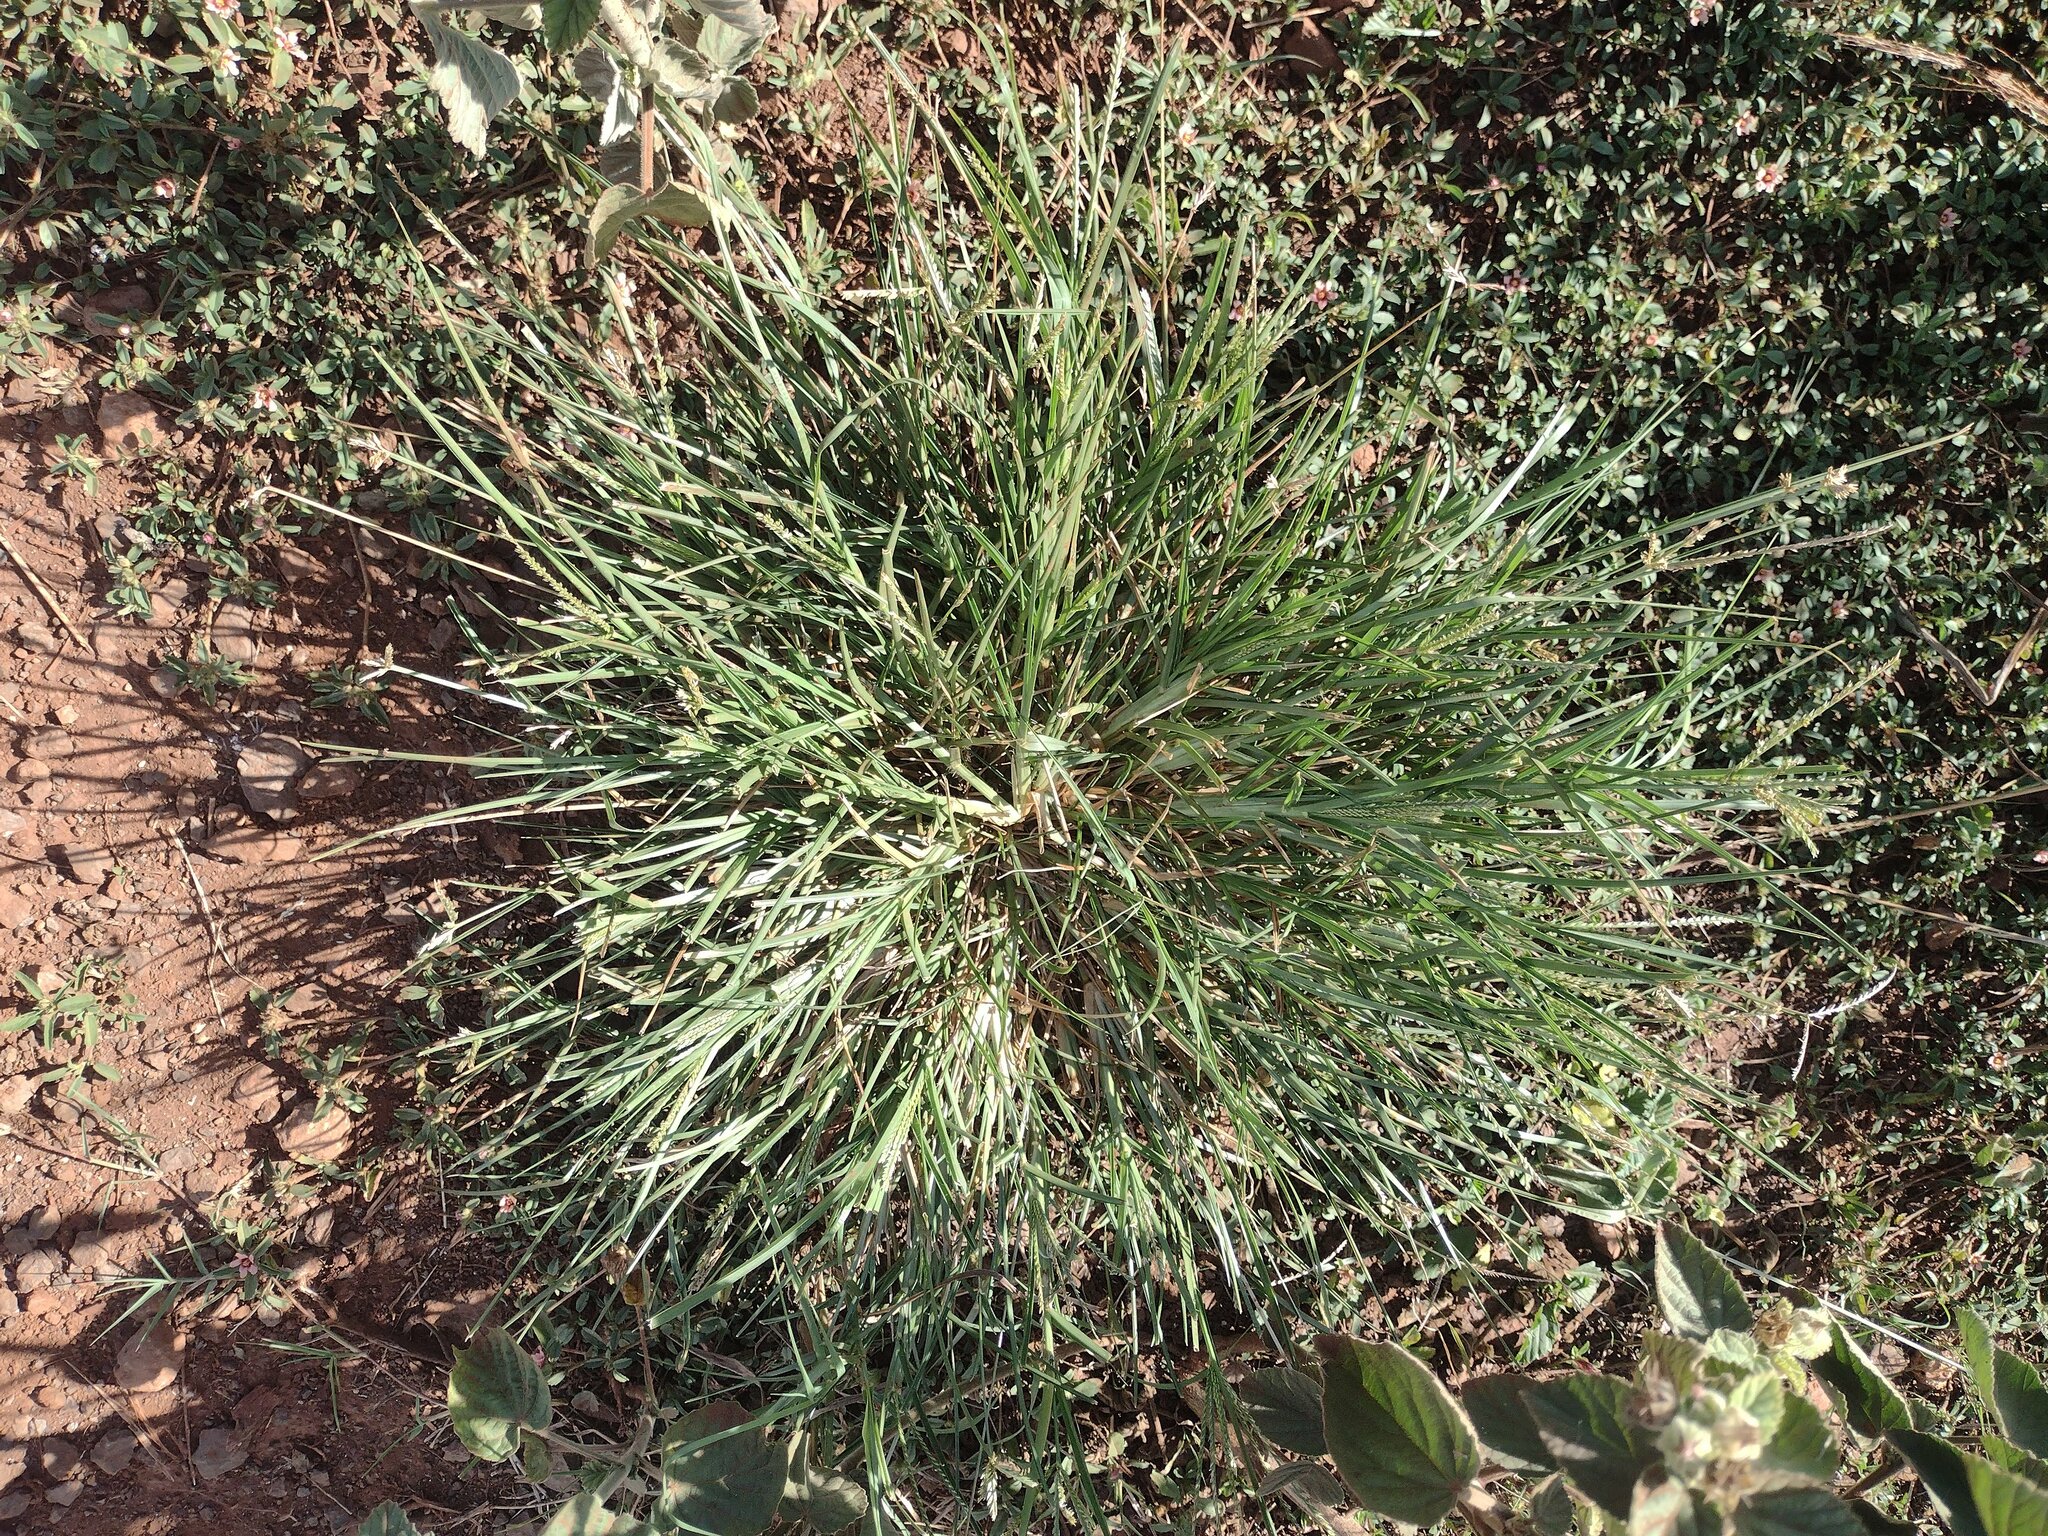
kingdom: Plantae
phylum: Tracheophyta
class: Liliopsida
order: Poales
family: Poaceae
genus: Eleusine
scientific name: Eleusine indica
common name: Yard-grass
